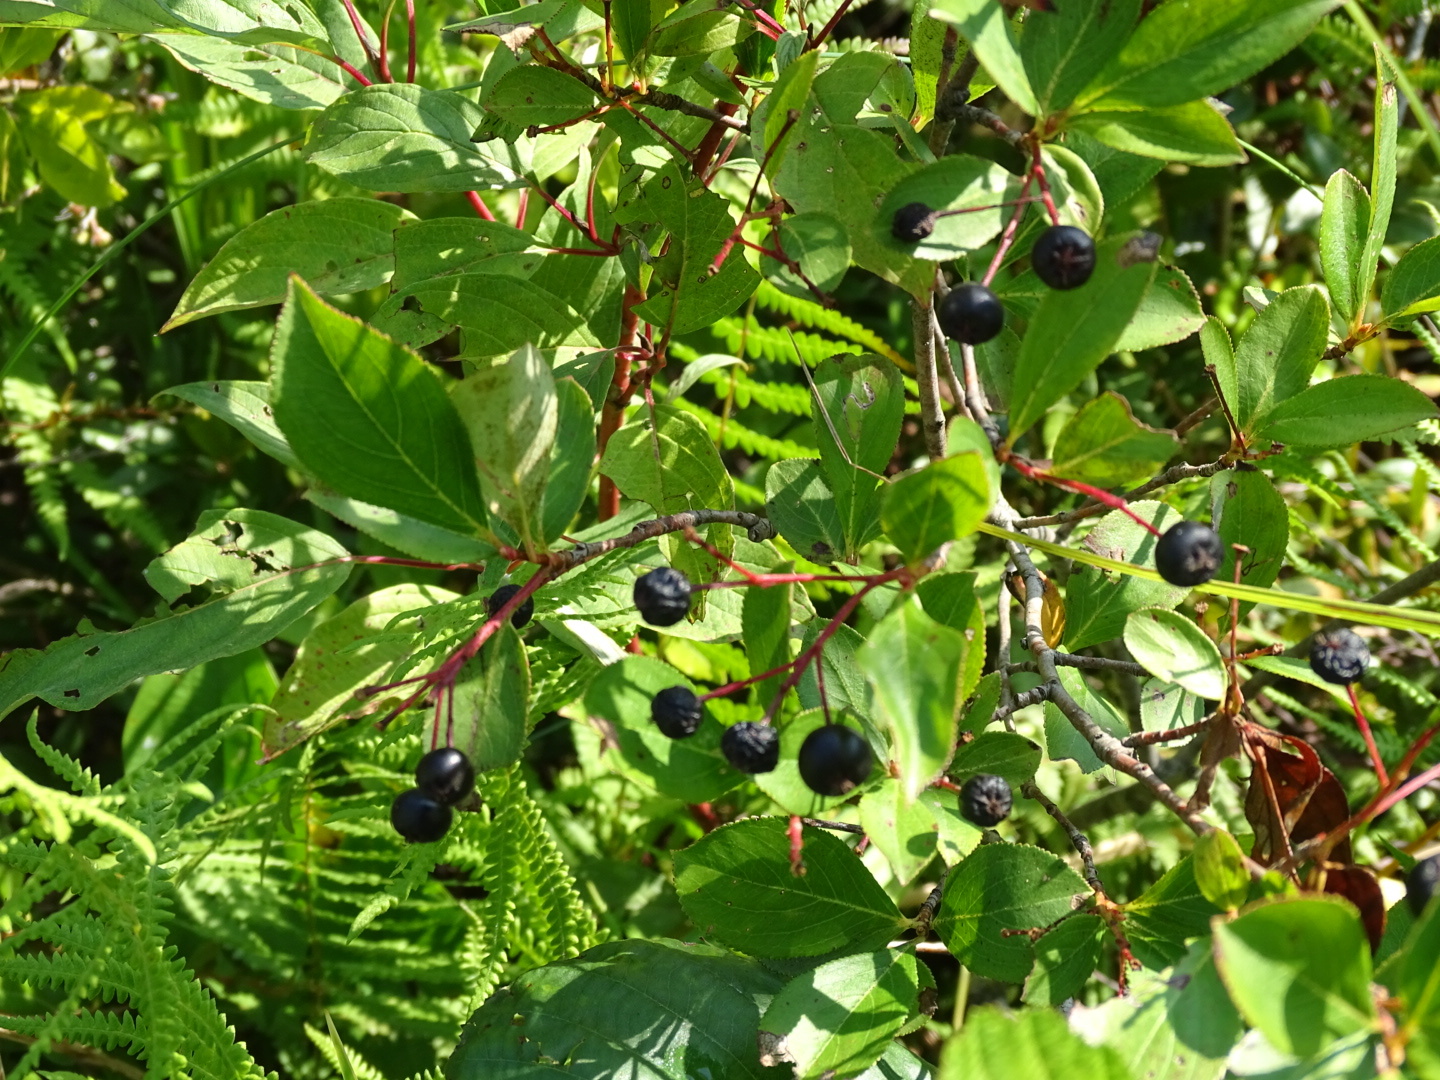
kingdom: Plantae
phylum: Tracheophyta
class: Magnoliopsida
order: Rosales
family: Rosaceae
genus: Aronia
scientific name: Aronia melanocarpa
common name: Black chokeberry
